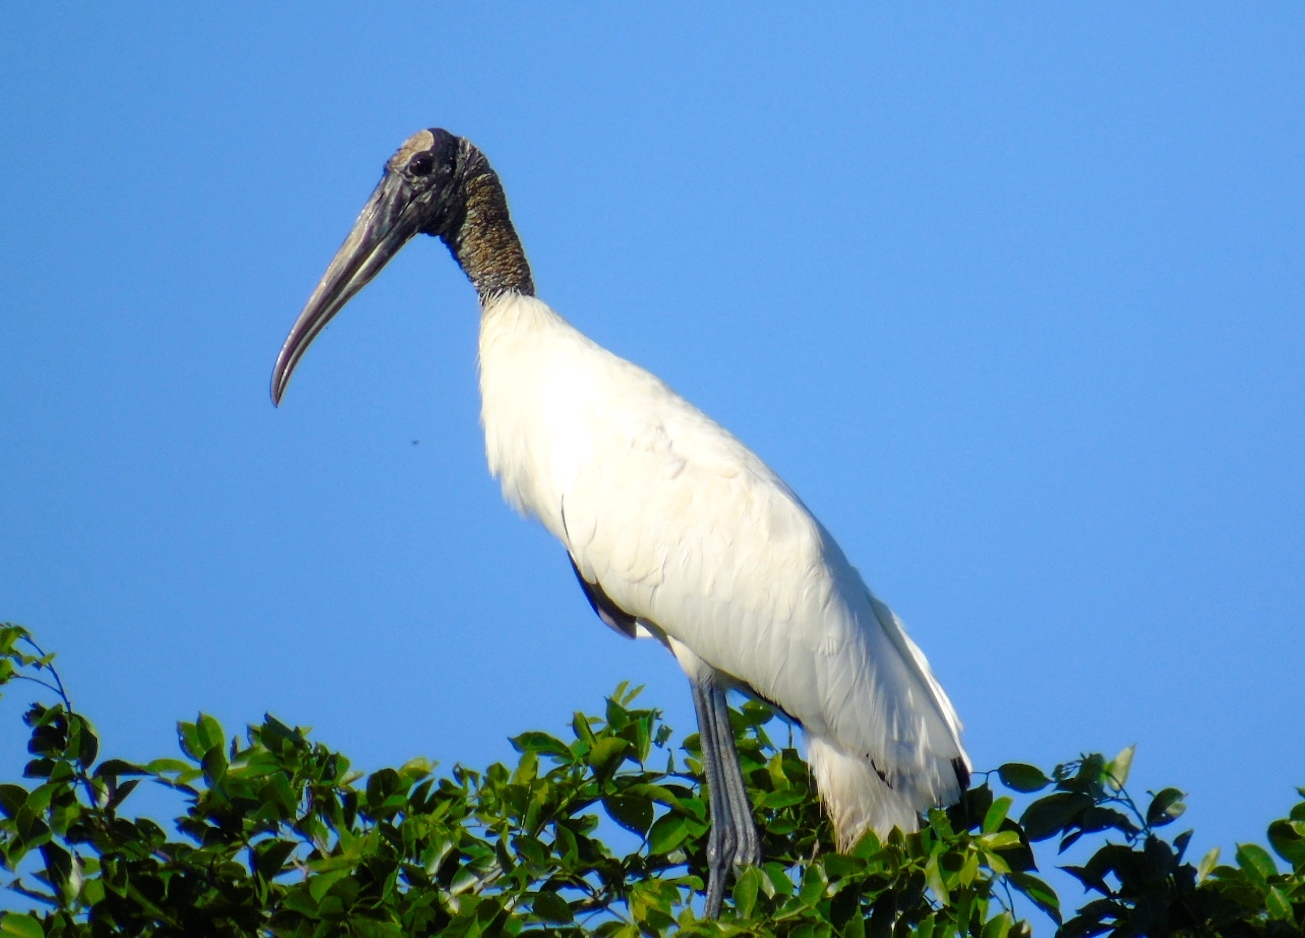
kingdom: Animalia
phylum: Chordata
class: Aves
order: Ciconiiformes
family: Ciconiidae
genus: Mycteria
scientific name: Mycteria americana
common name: Wood stork
